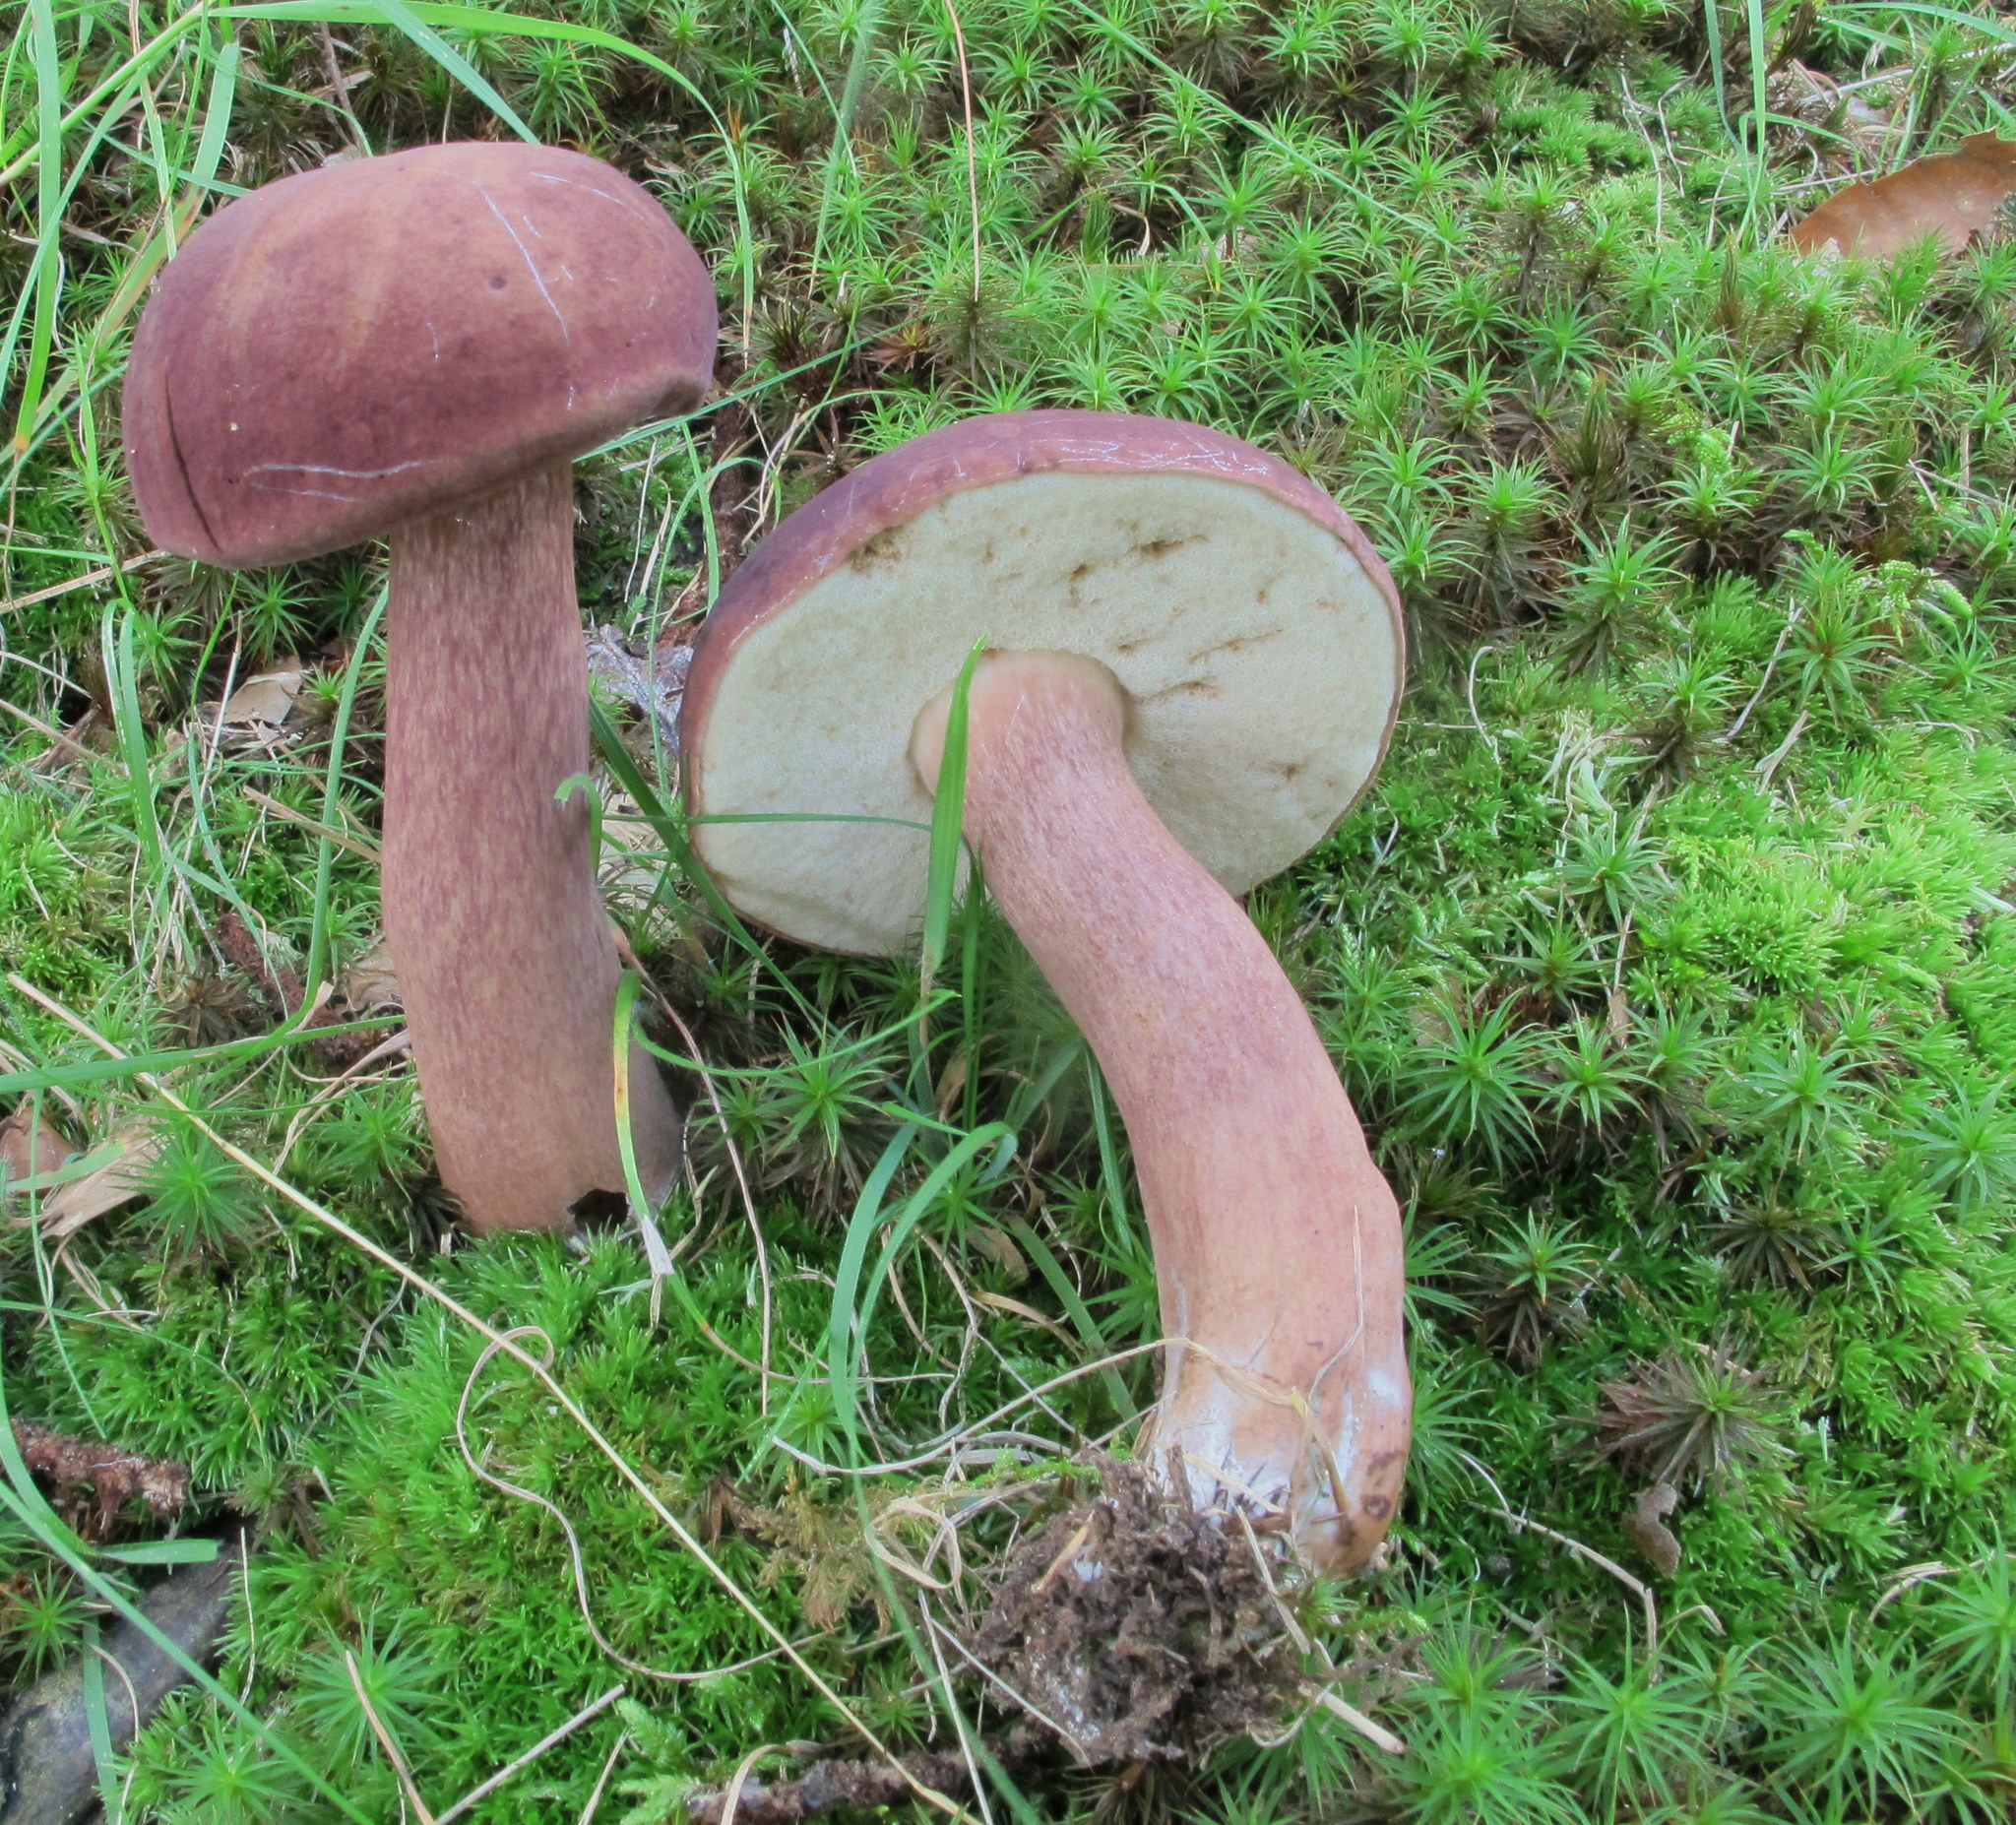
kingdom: Fungi
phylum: Basidiomycota
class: Agaricomycetes
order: Boletales
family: Boletaceae
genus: Tylopilus
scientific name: Tylopilus badiceps
